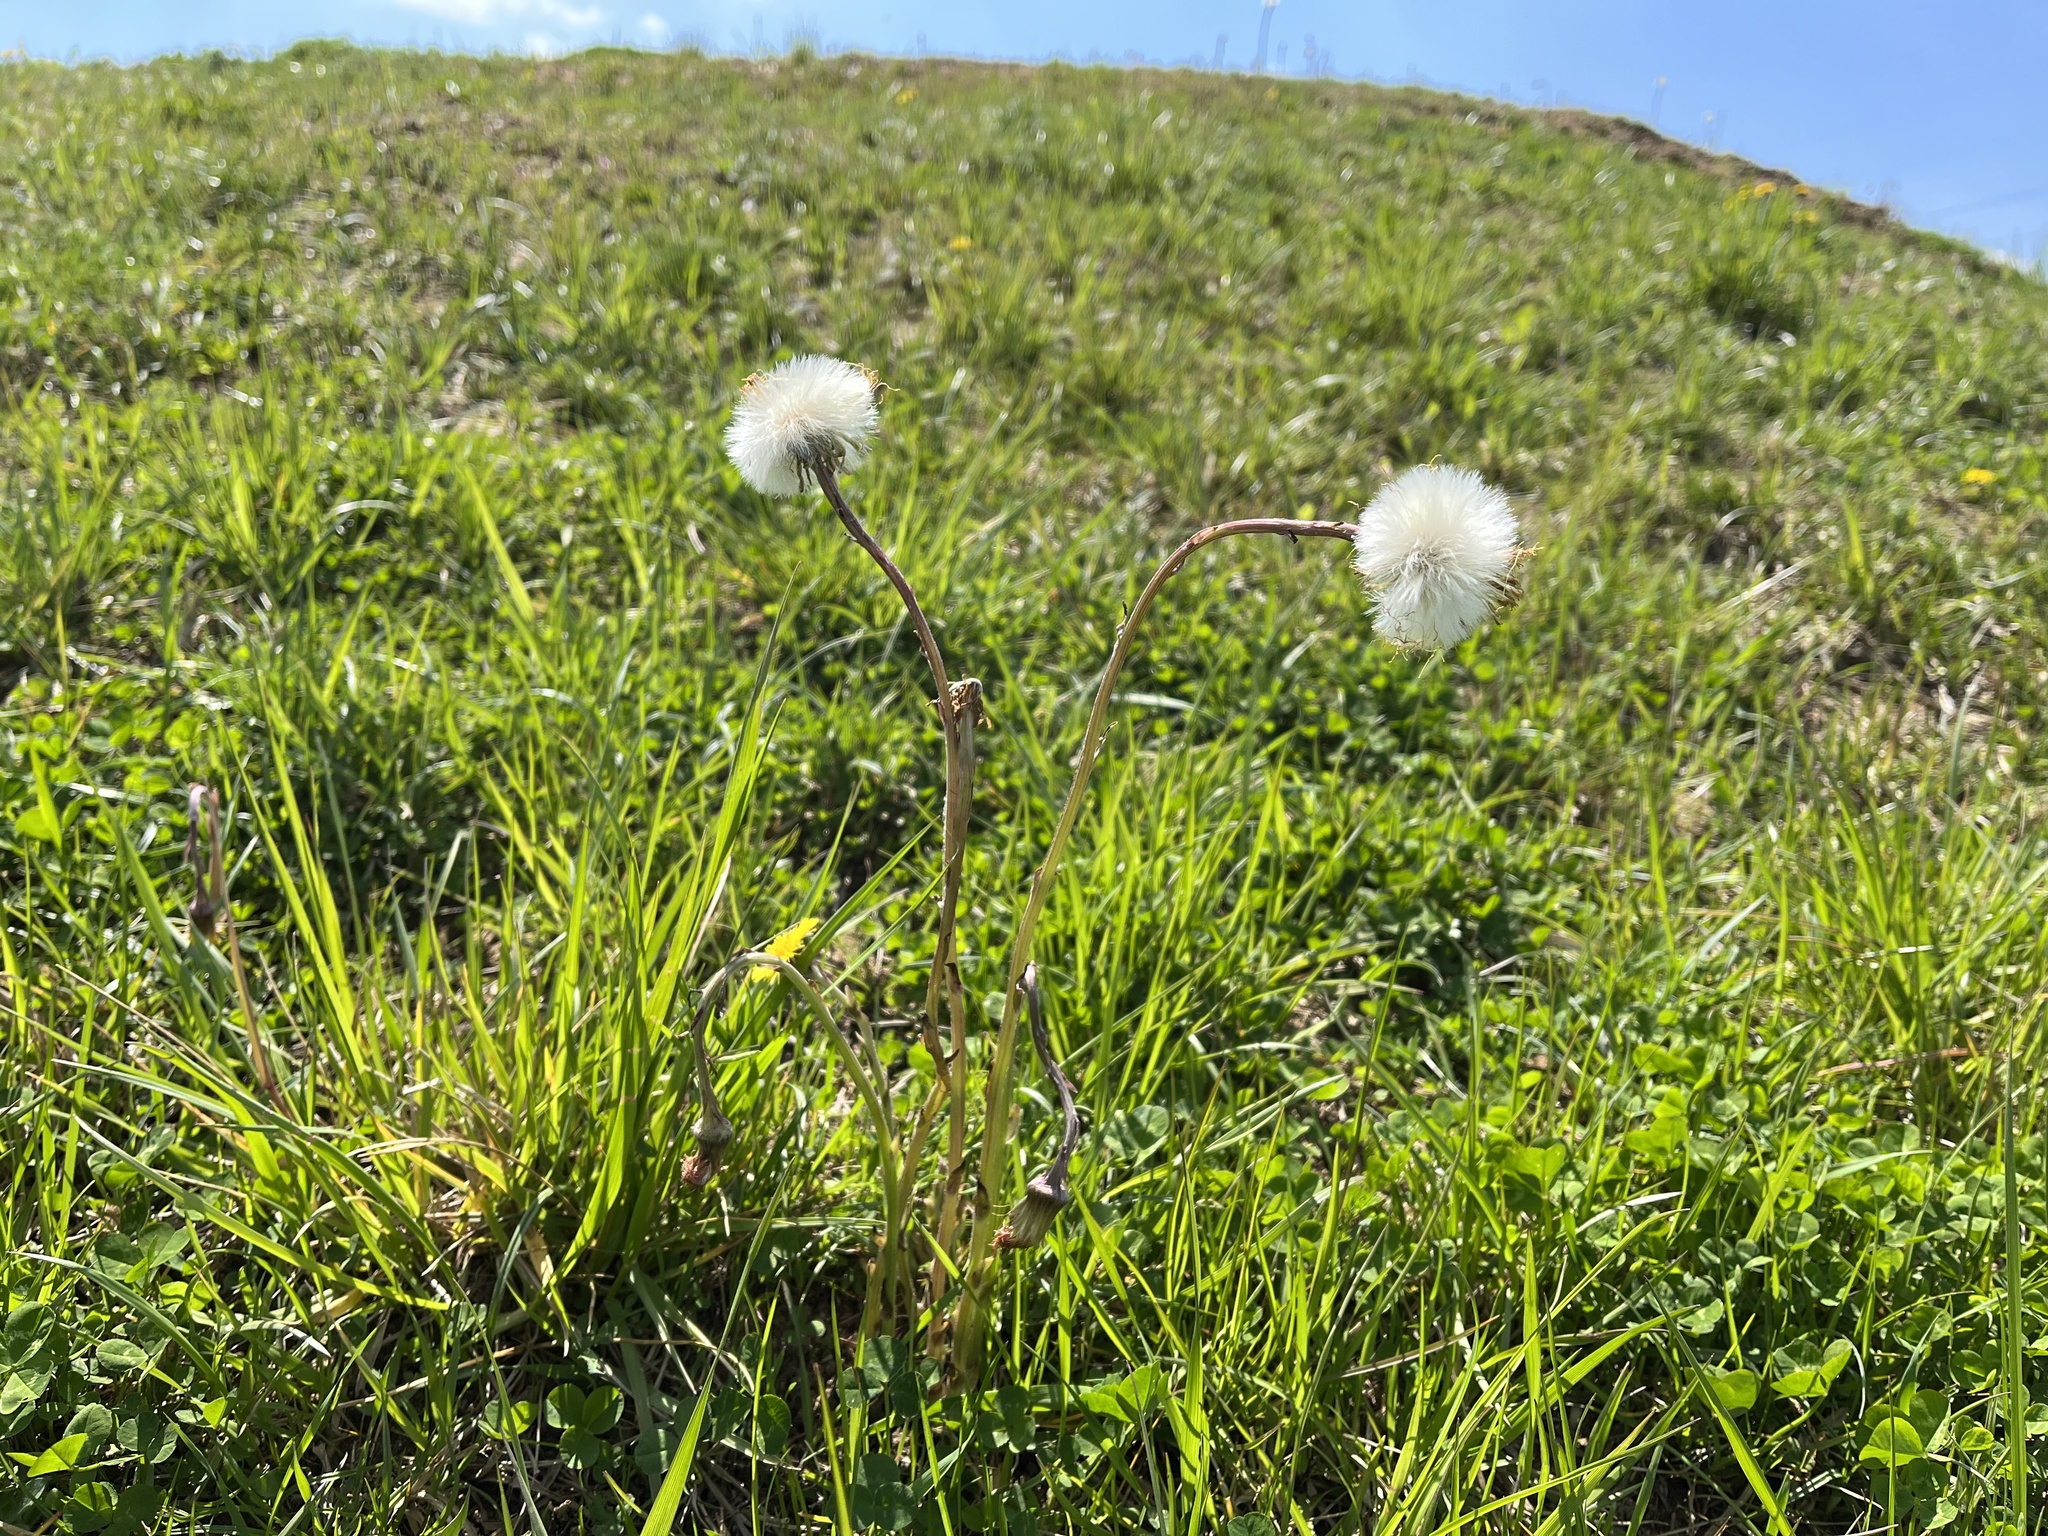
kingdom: Plantae
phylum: Tracheophyta
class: Magnoliopsida
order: Asterales
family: Asteraceae
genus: Tussilago
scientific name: Tussilago farfara
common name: Coltsfoot
